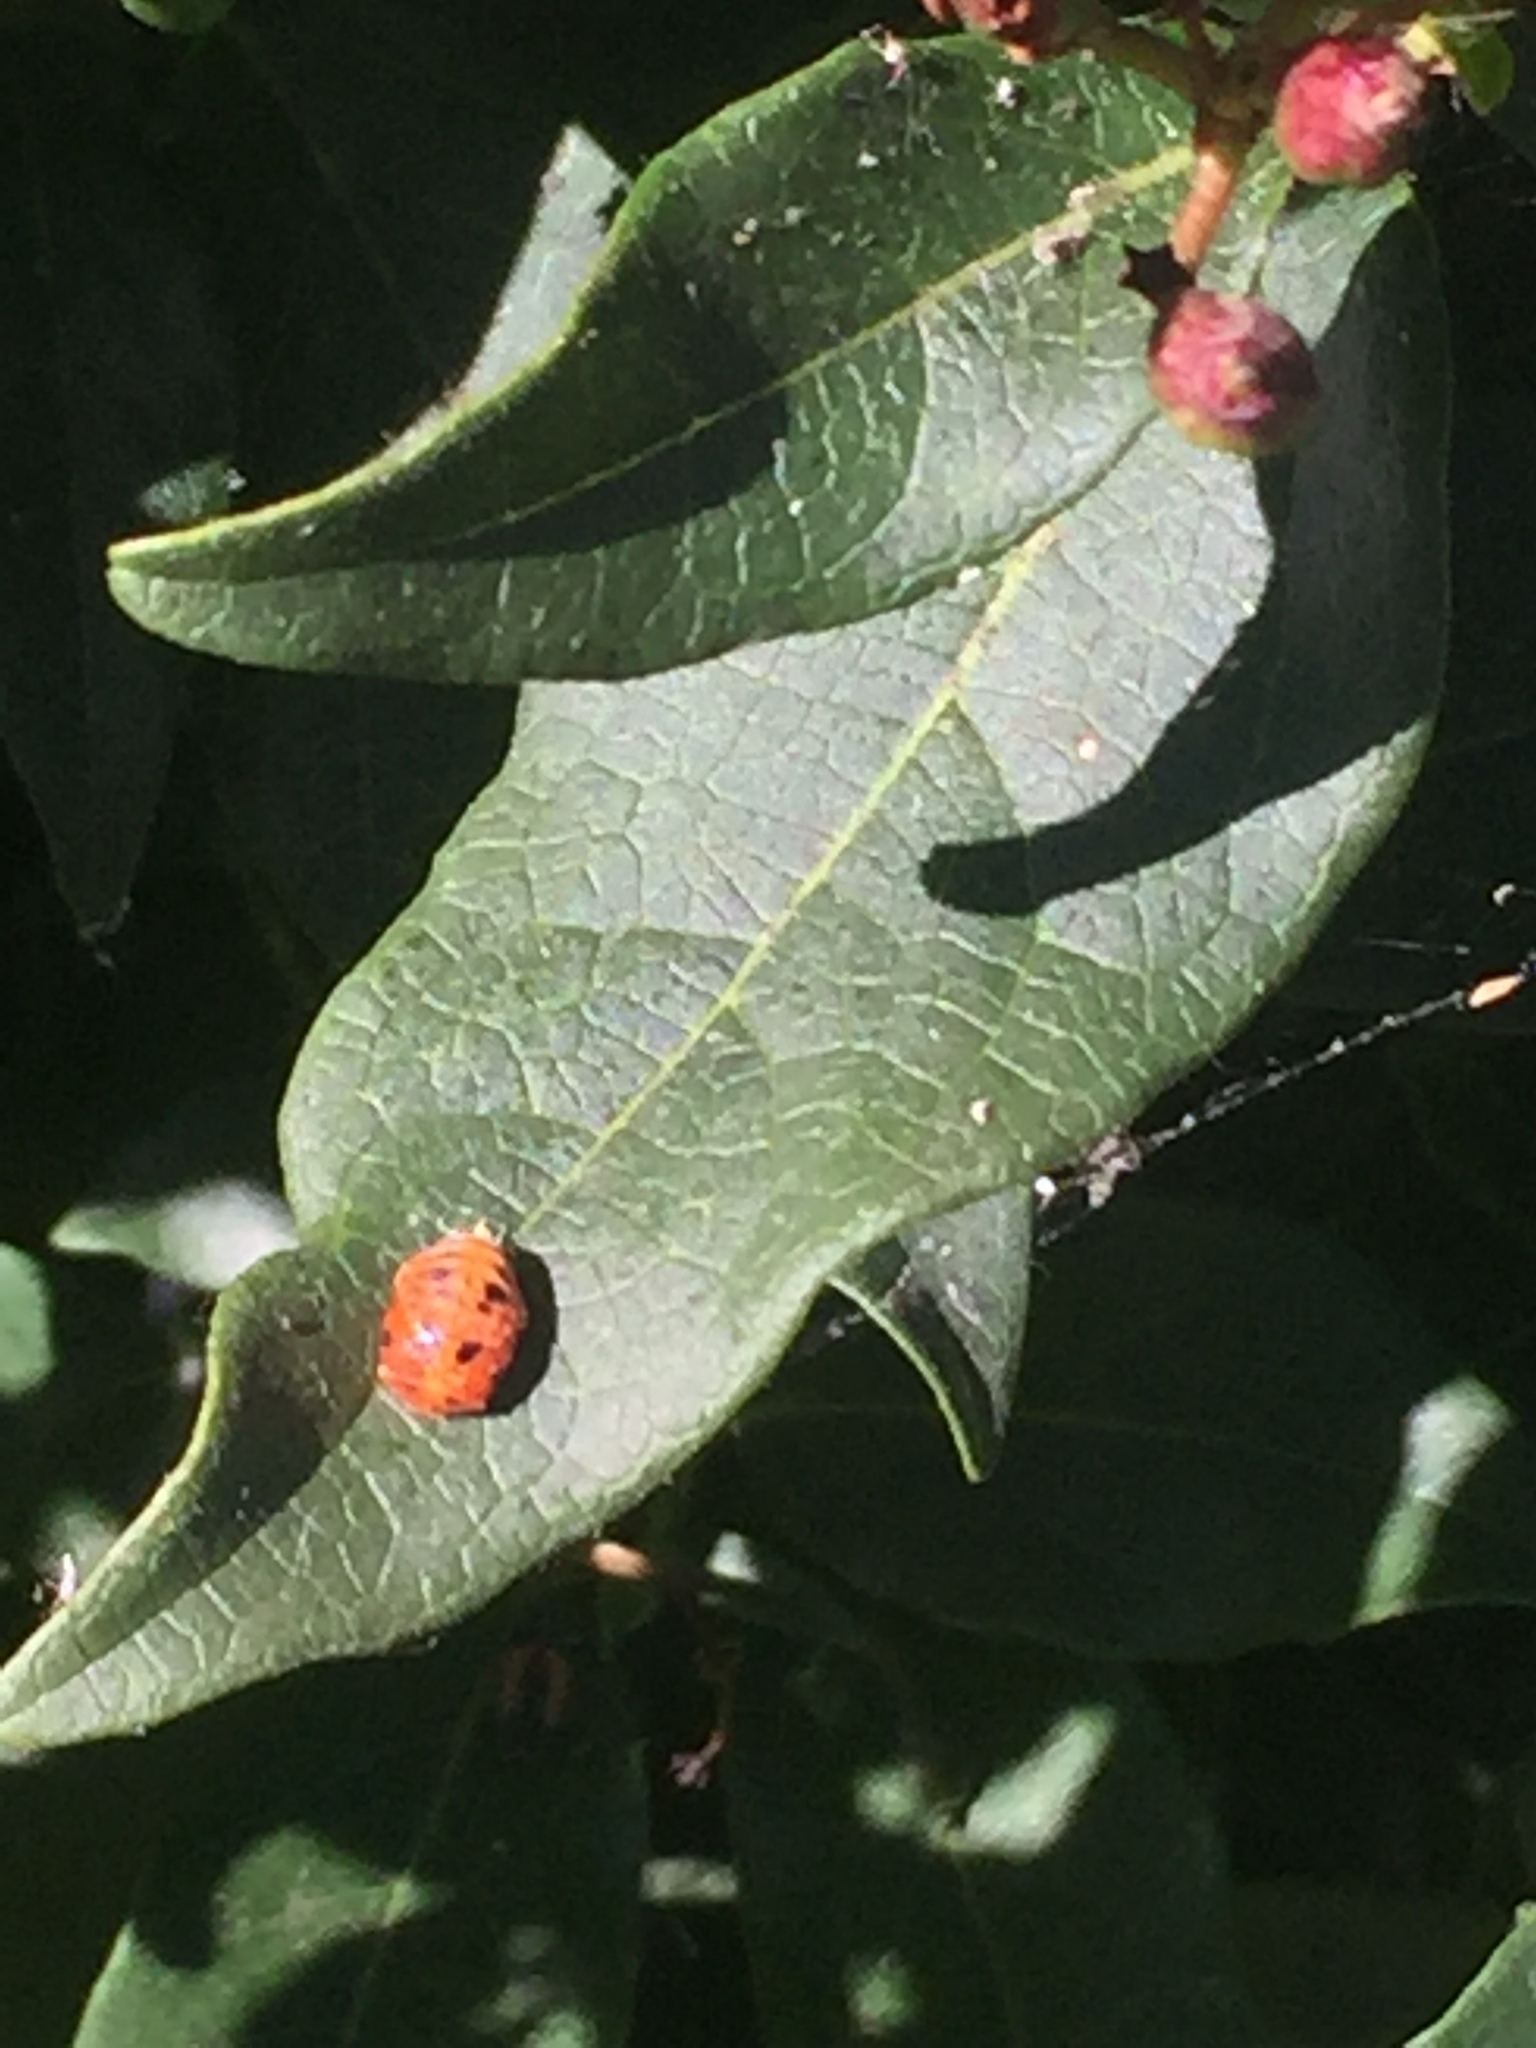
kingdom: Animalia
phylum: Arthropoda
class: Insecta
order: Coleoptera
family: Coccinellidae
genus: Harmonia
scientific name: Harmonia axyridis
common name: Harlequin ladybird
